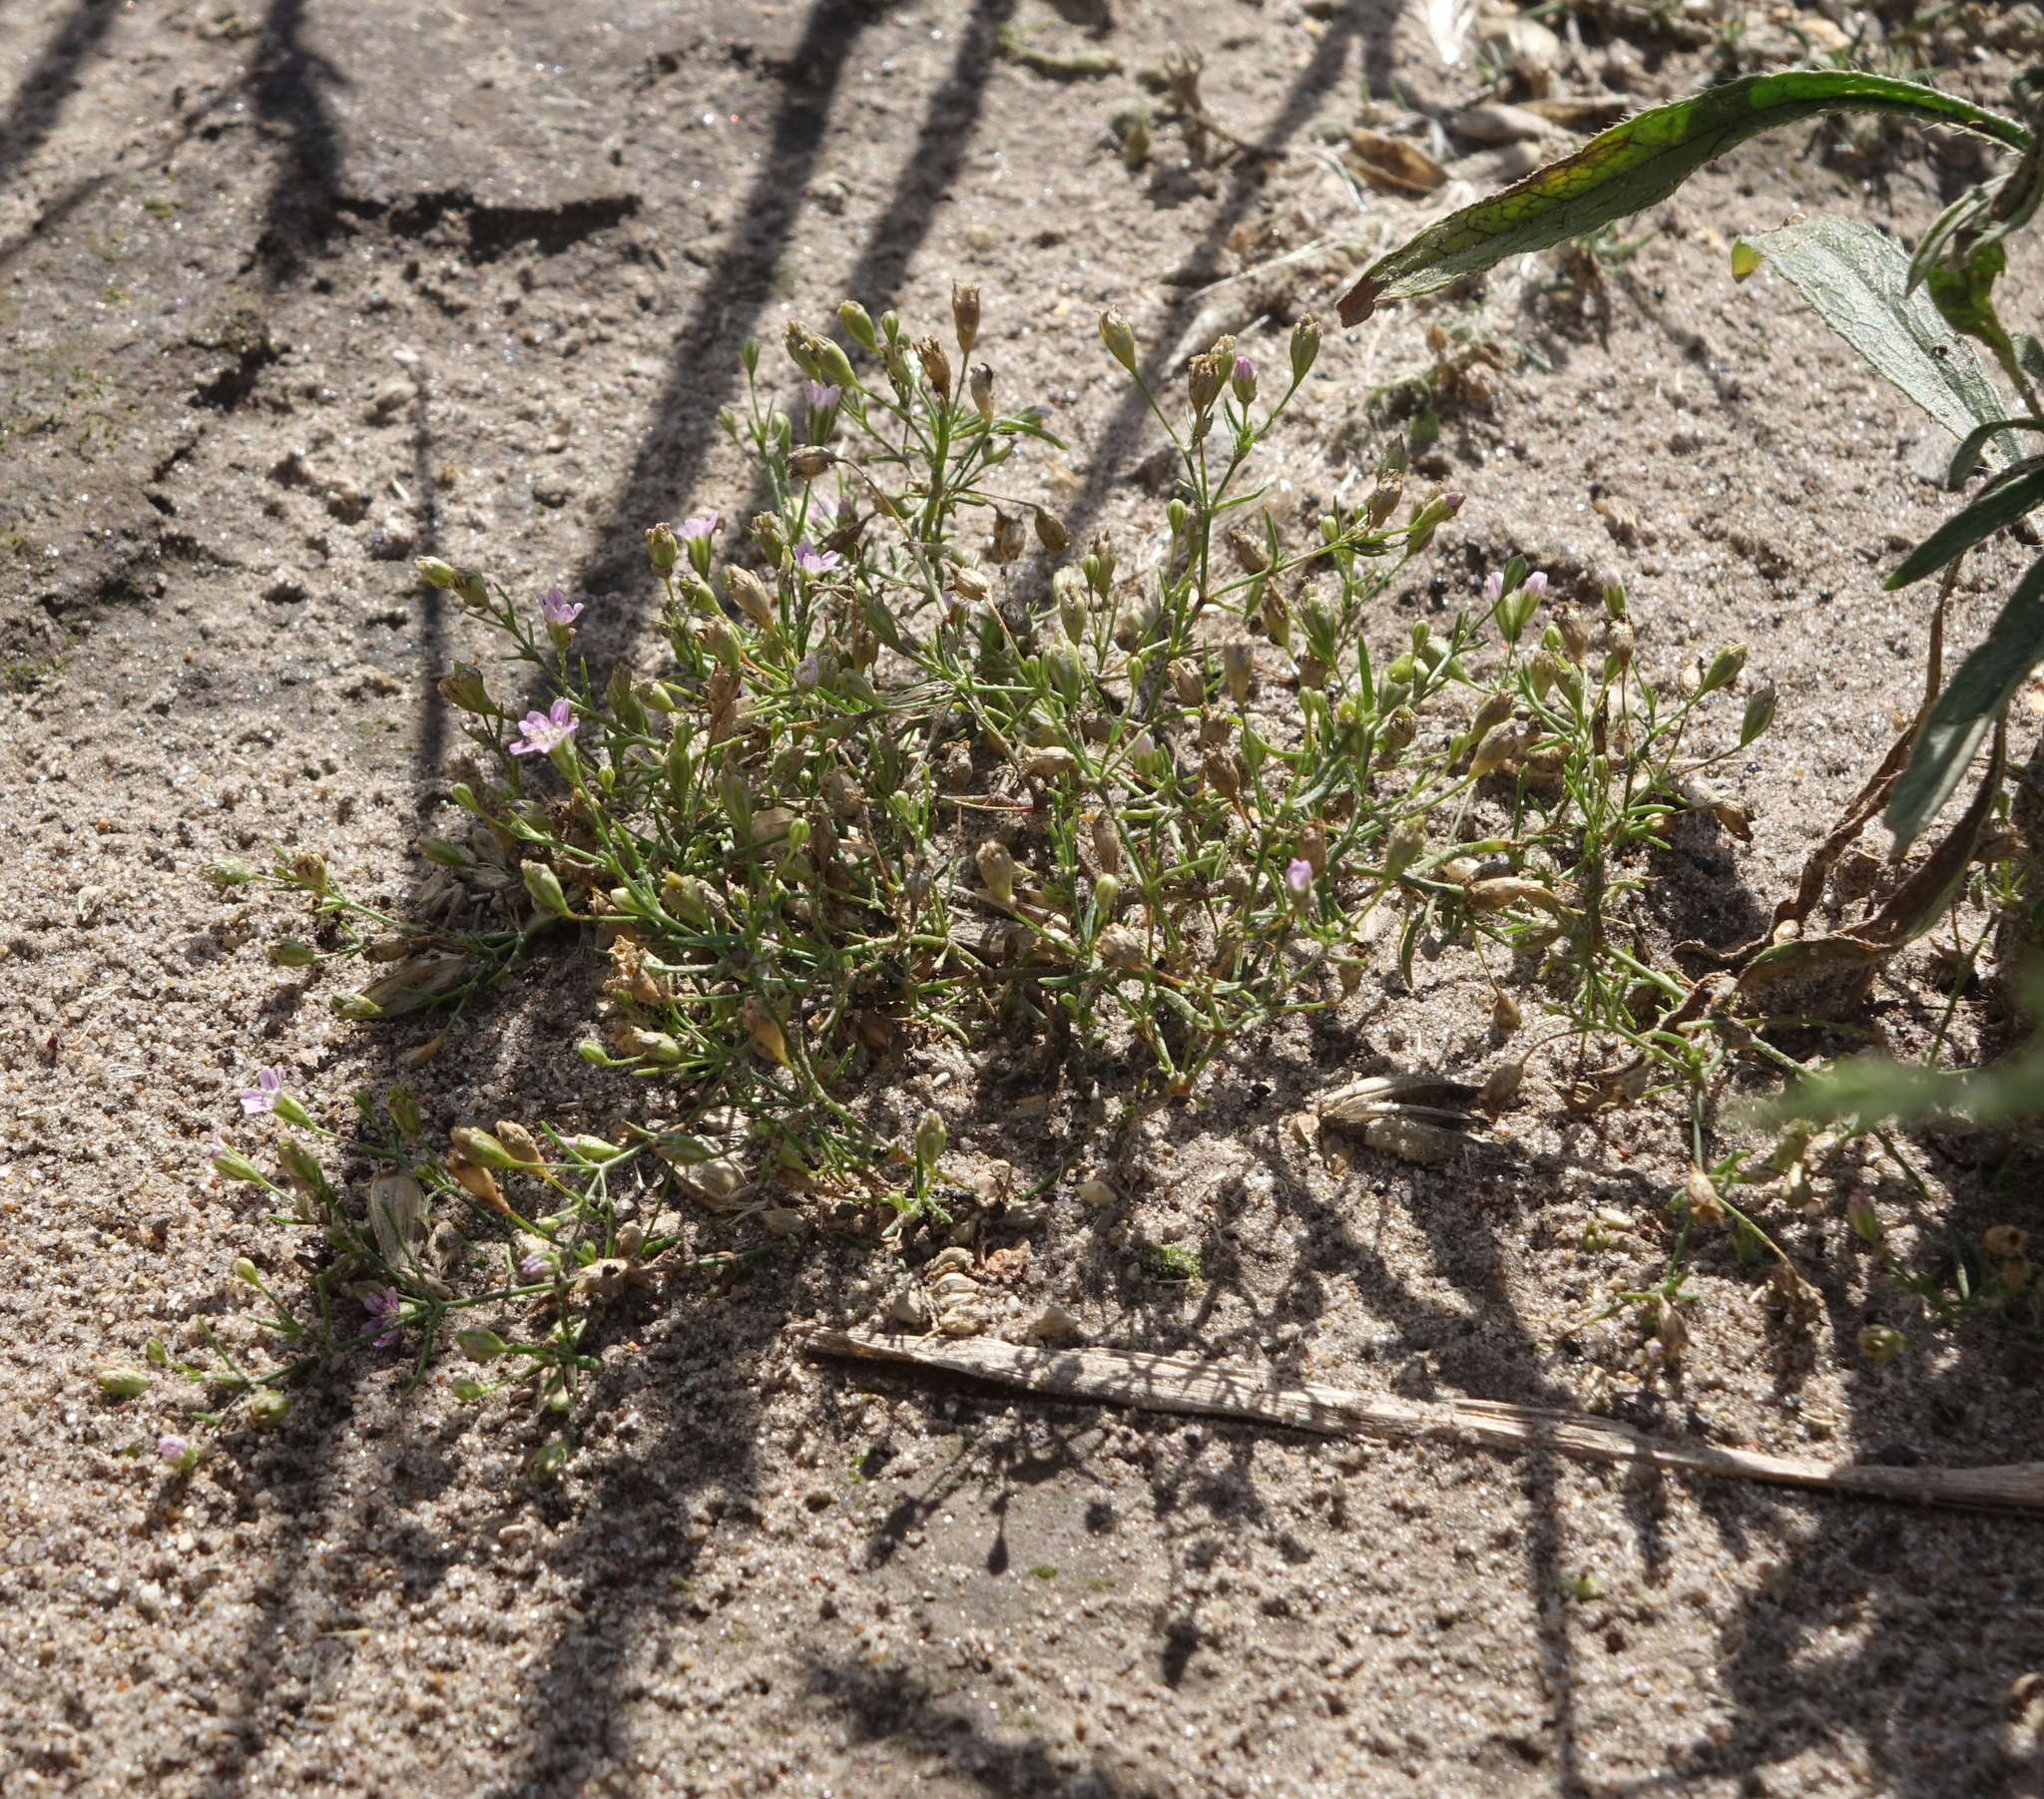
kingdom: Plantae
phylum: Tracheophyta
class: Magnoliopsida
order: Caryophyllales
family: Caryophyllaceae
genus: Psammophiliella
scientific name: Psammophiliella muralis
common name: Cushion baby's-breath
